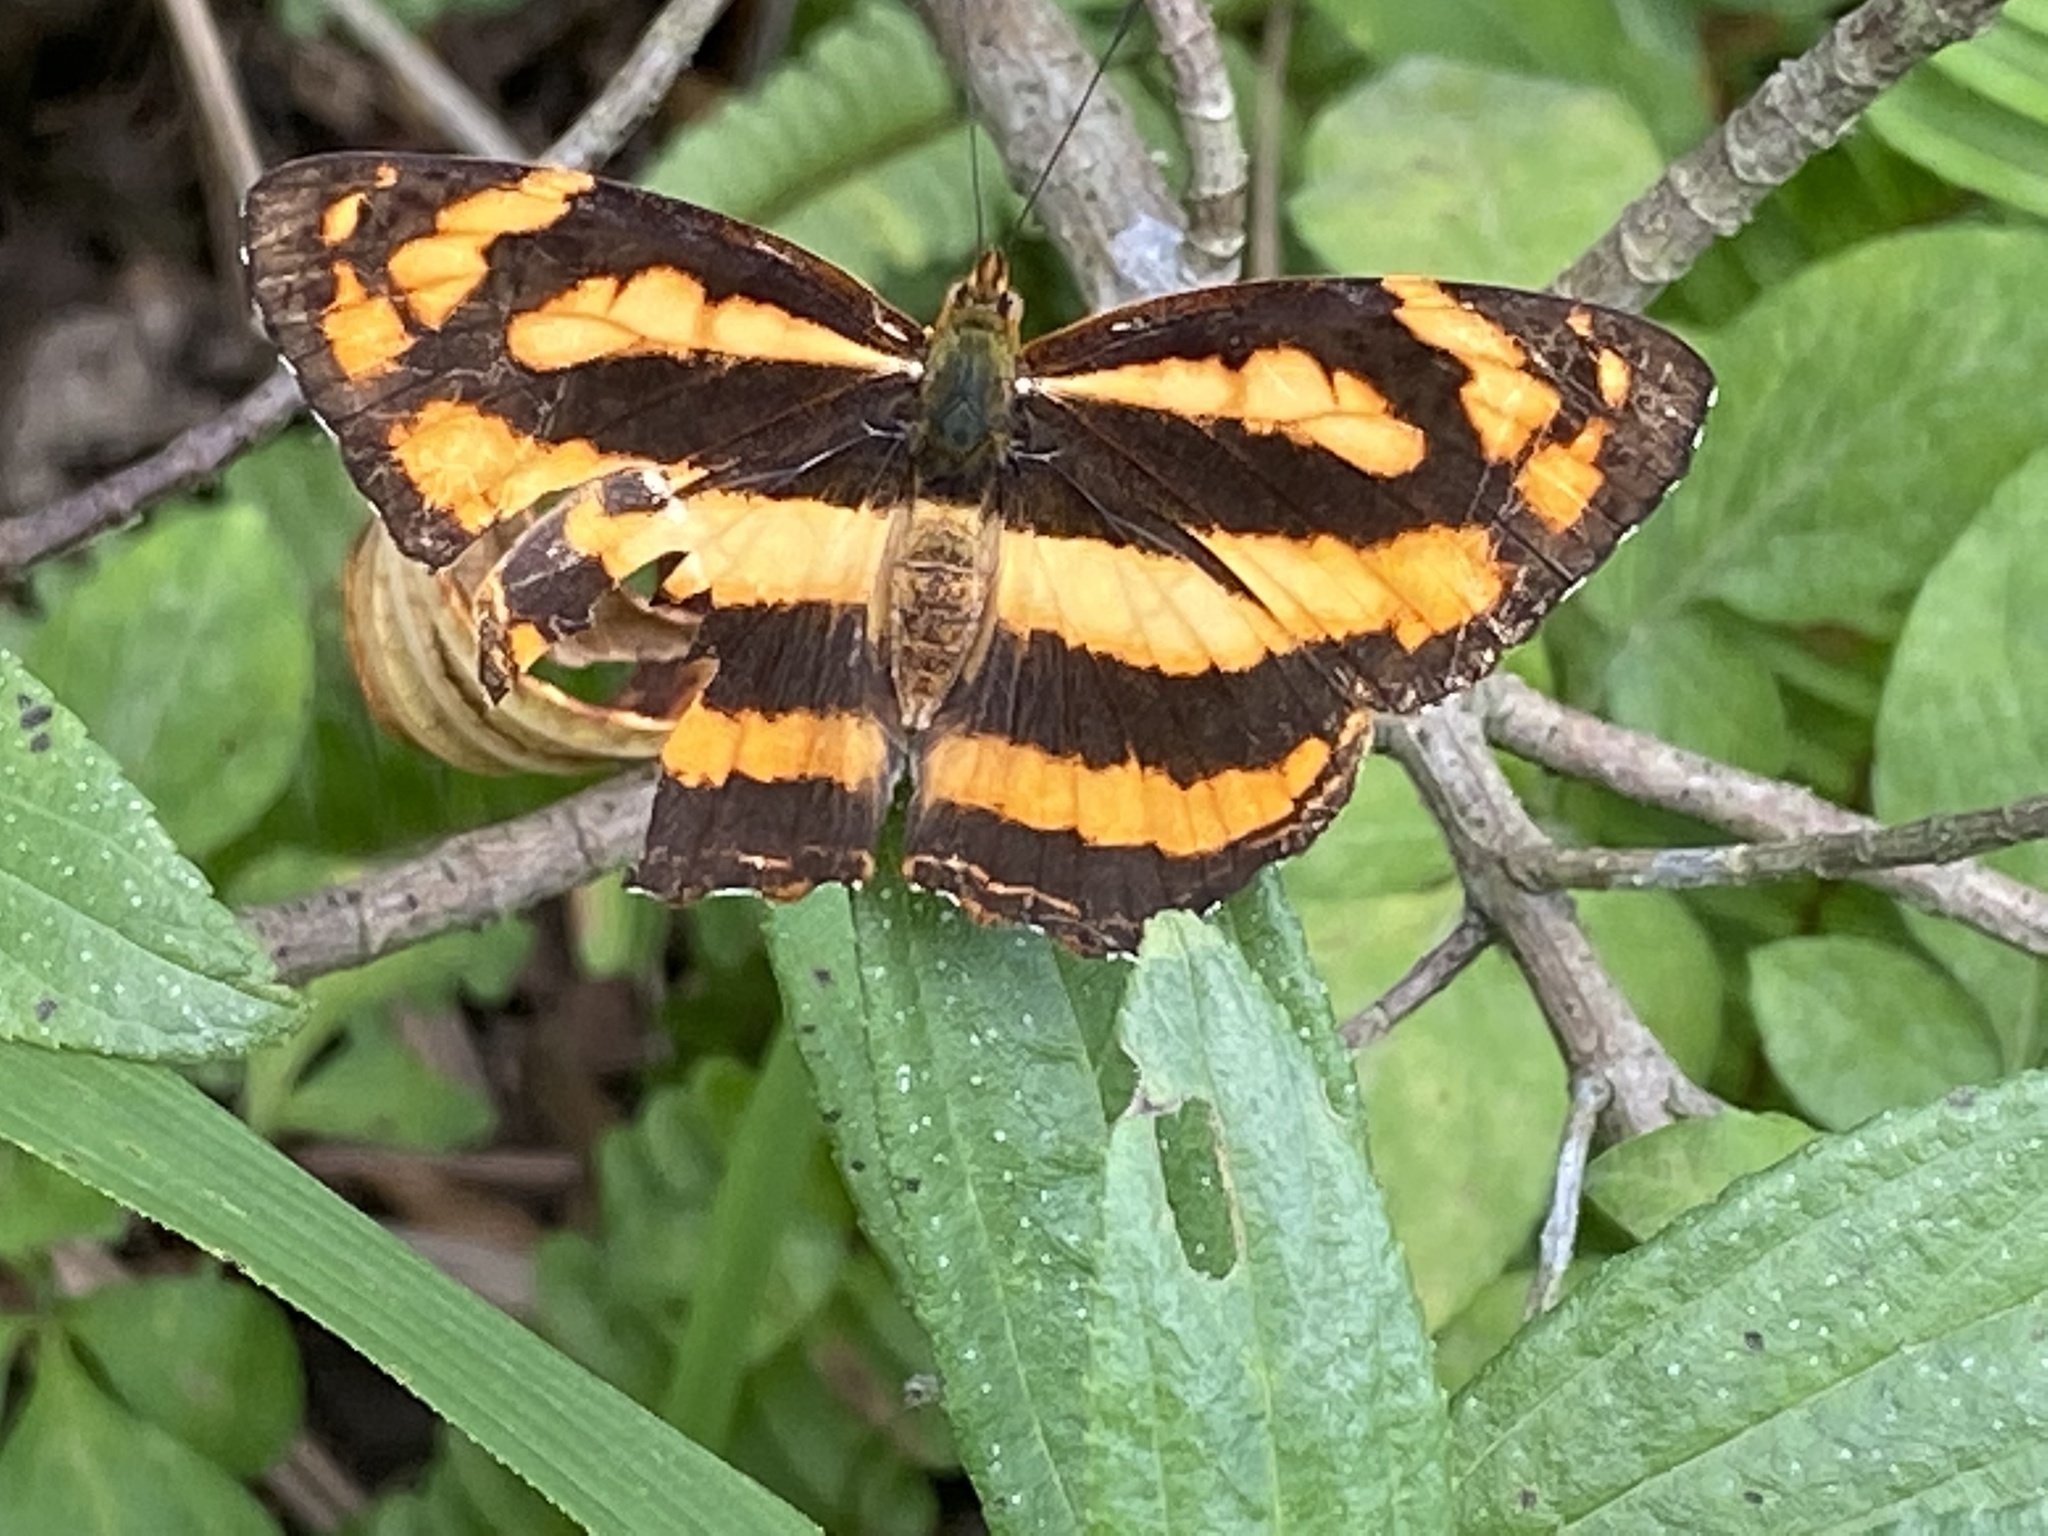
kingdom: Animalia
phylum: Arthropoda
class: Insecta
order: Lepidoptera
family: Nymphalidae
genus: Symbrenthia
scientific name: Symbrenthia hypselis
